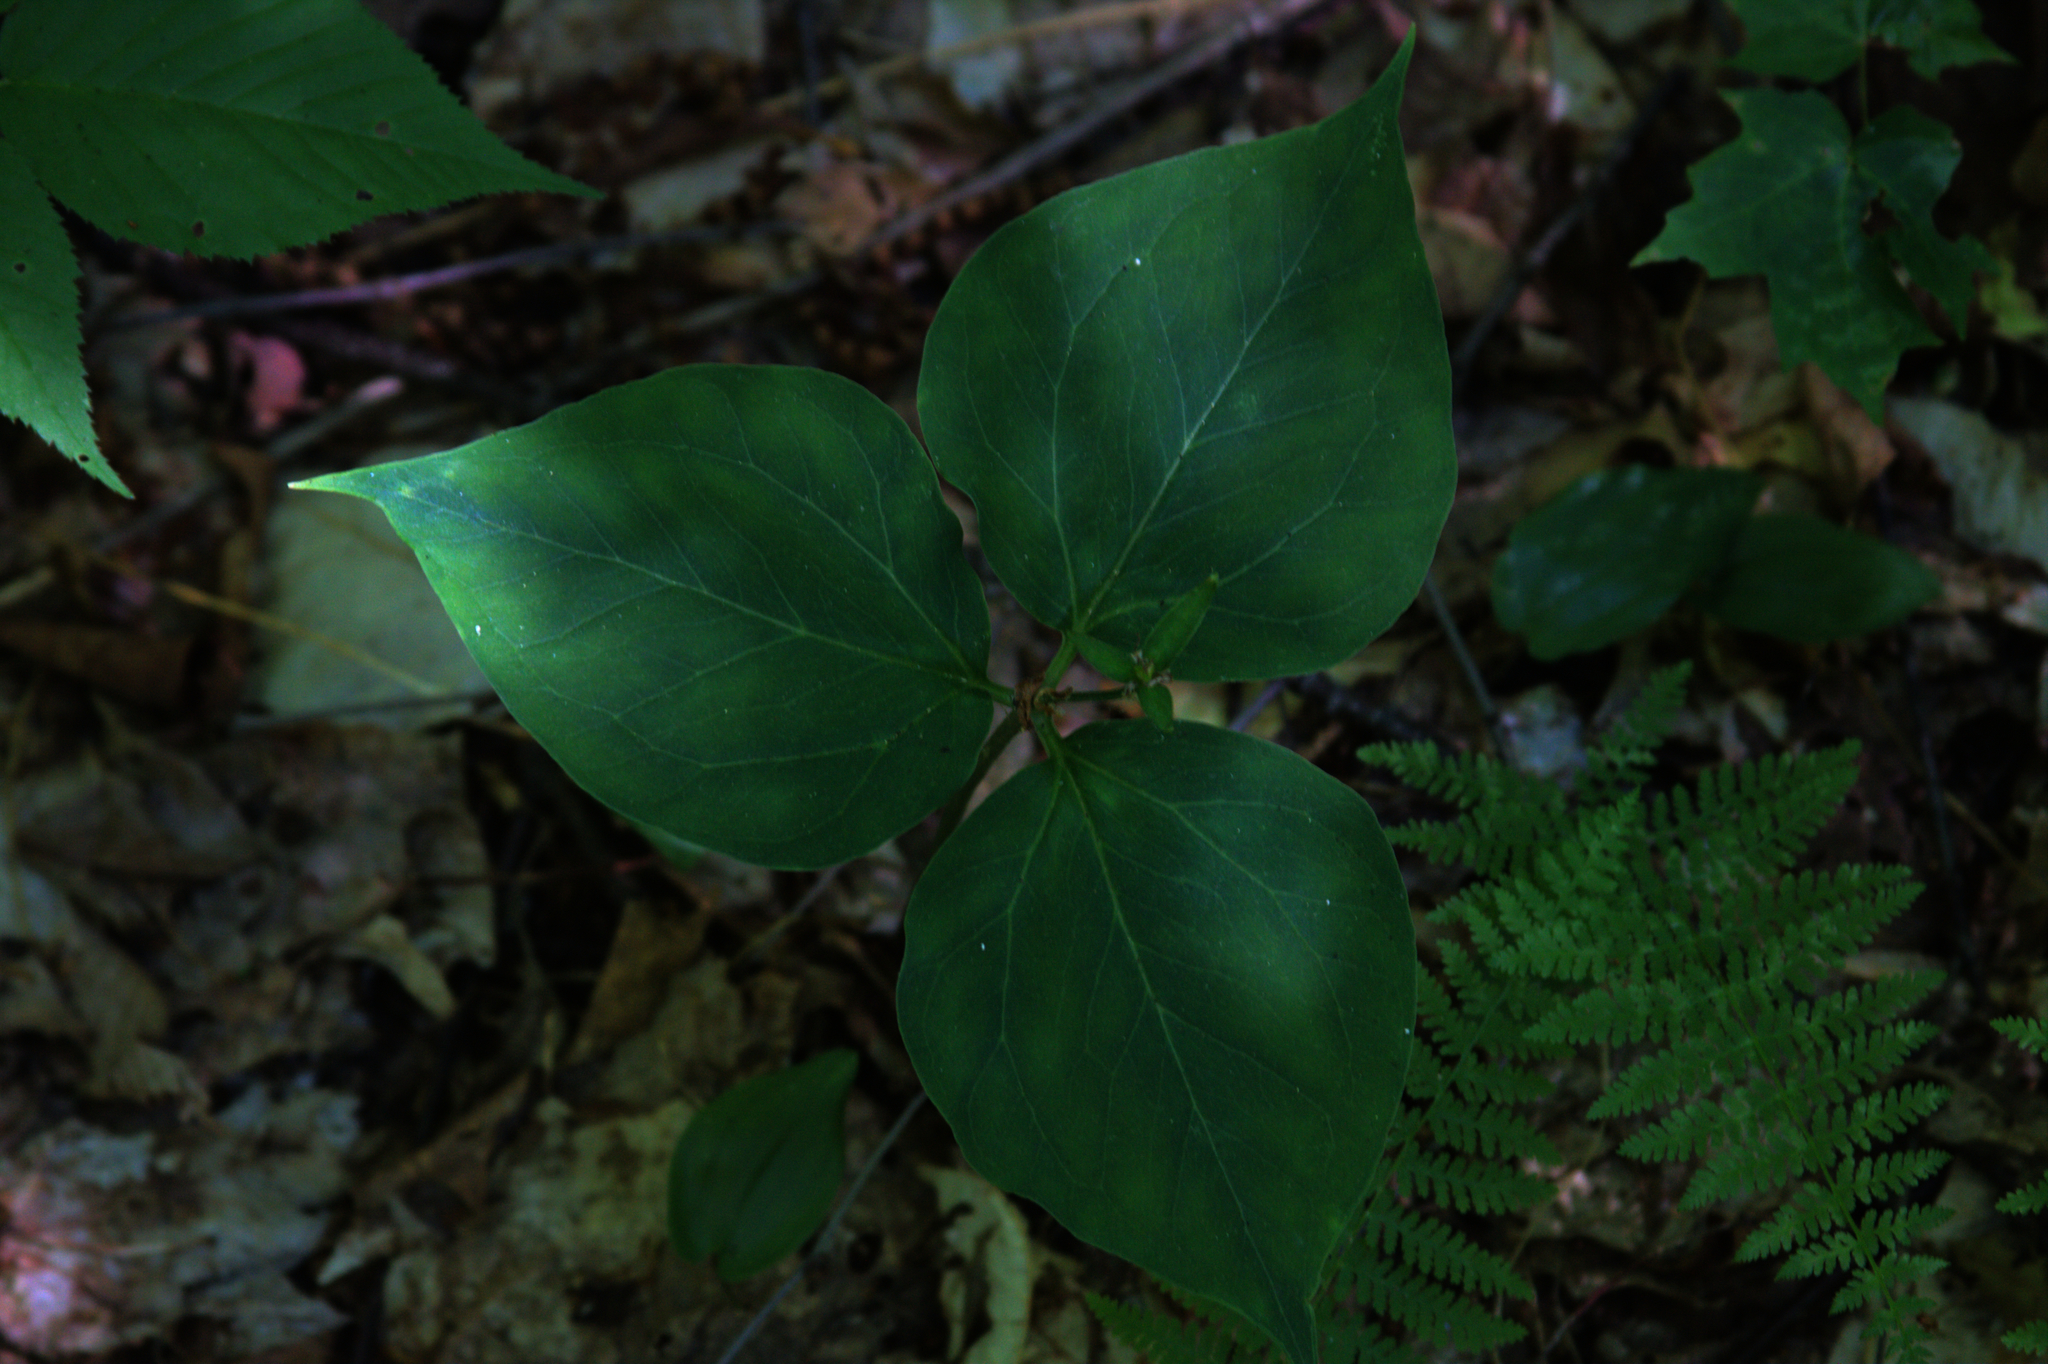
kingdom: Plantae
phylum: Tracheophyta
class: Liliopsida
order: Liliales
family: Melanthiaceae
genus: Trillium
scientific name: Trillium undulatum
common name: Paint trillium
